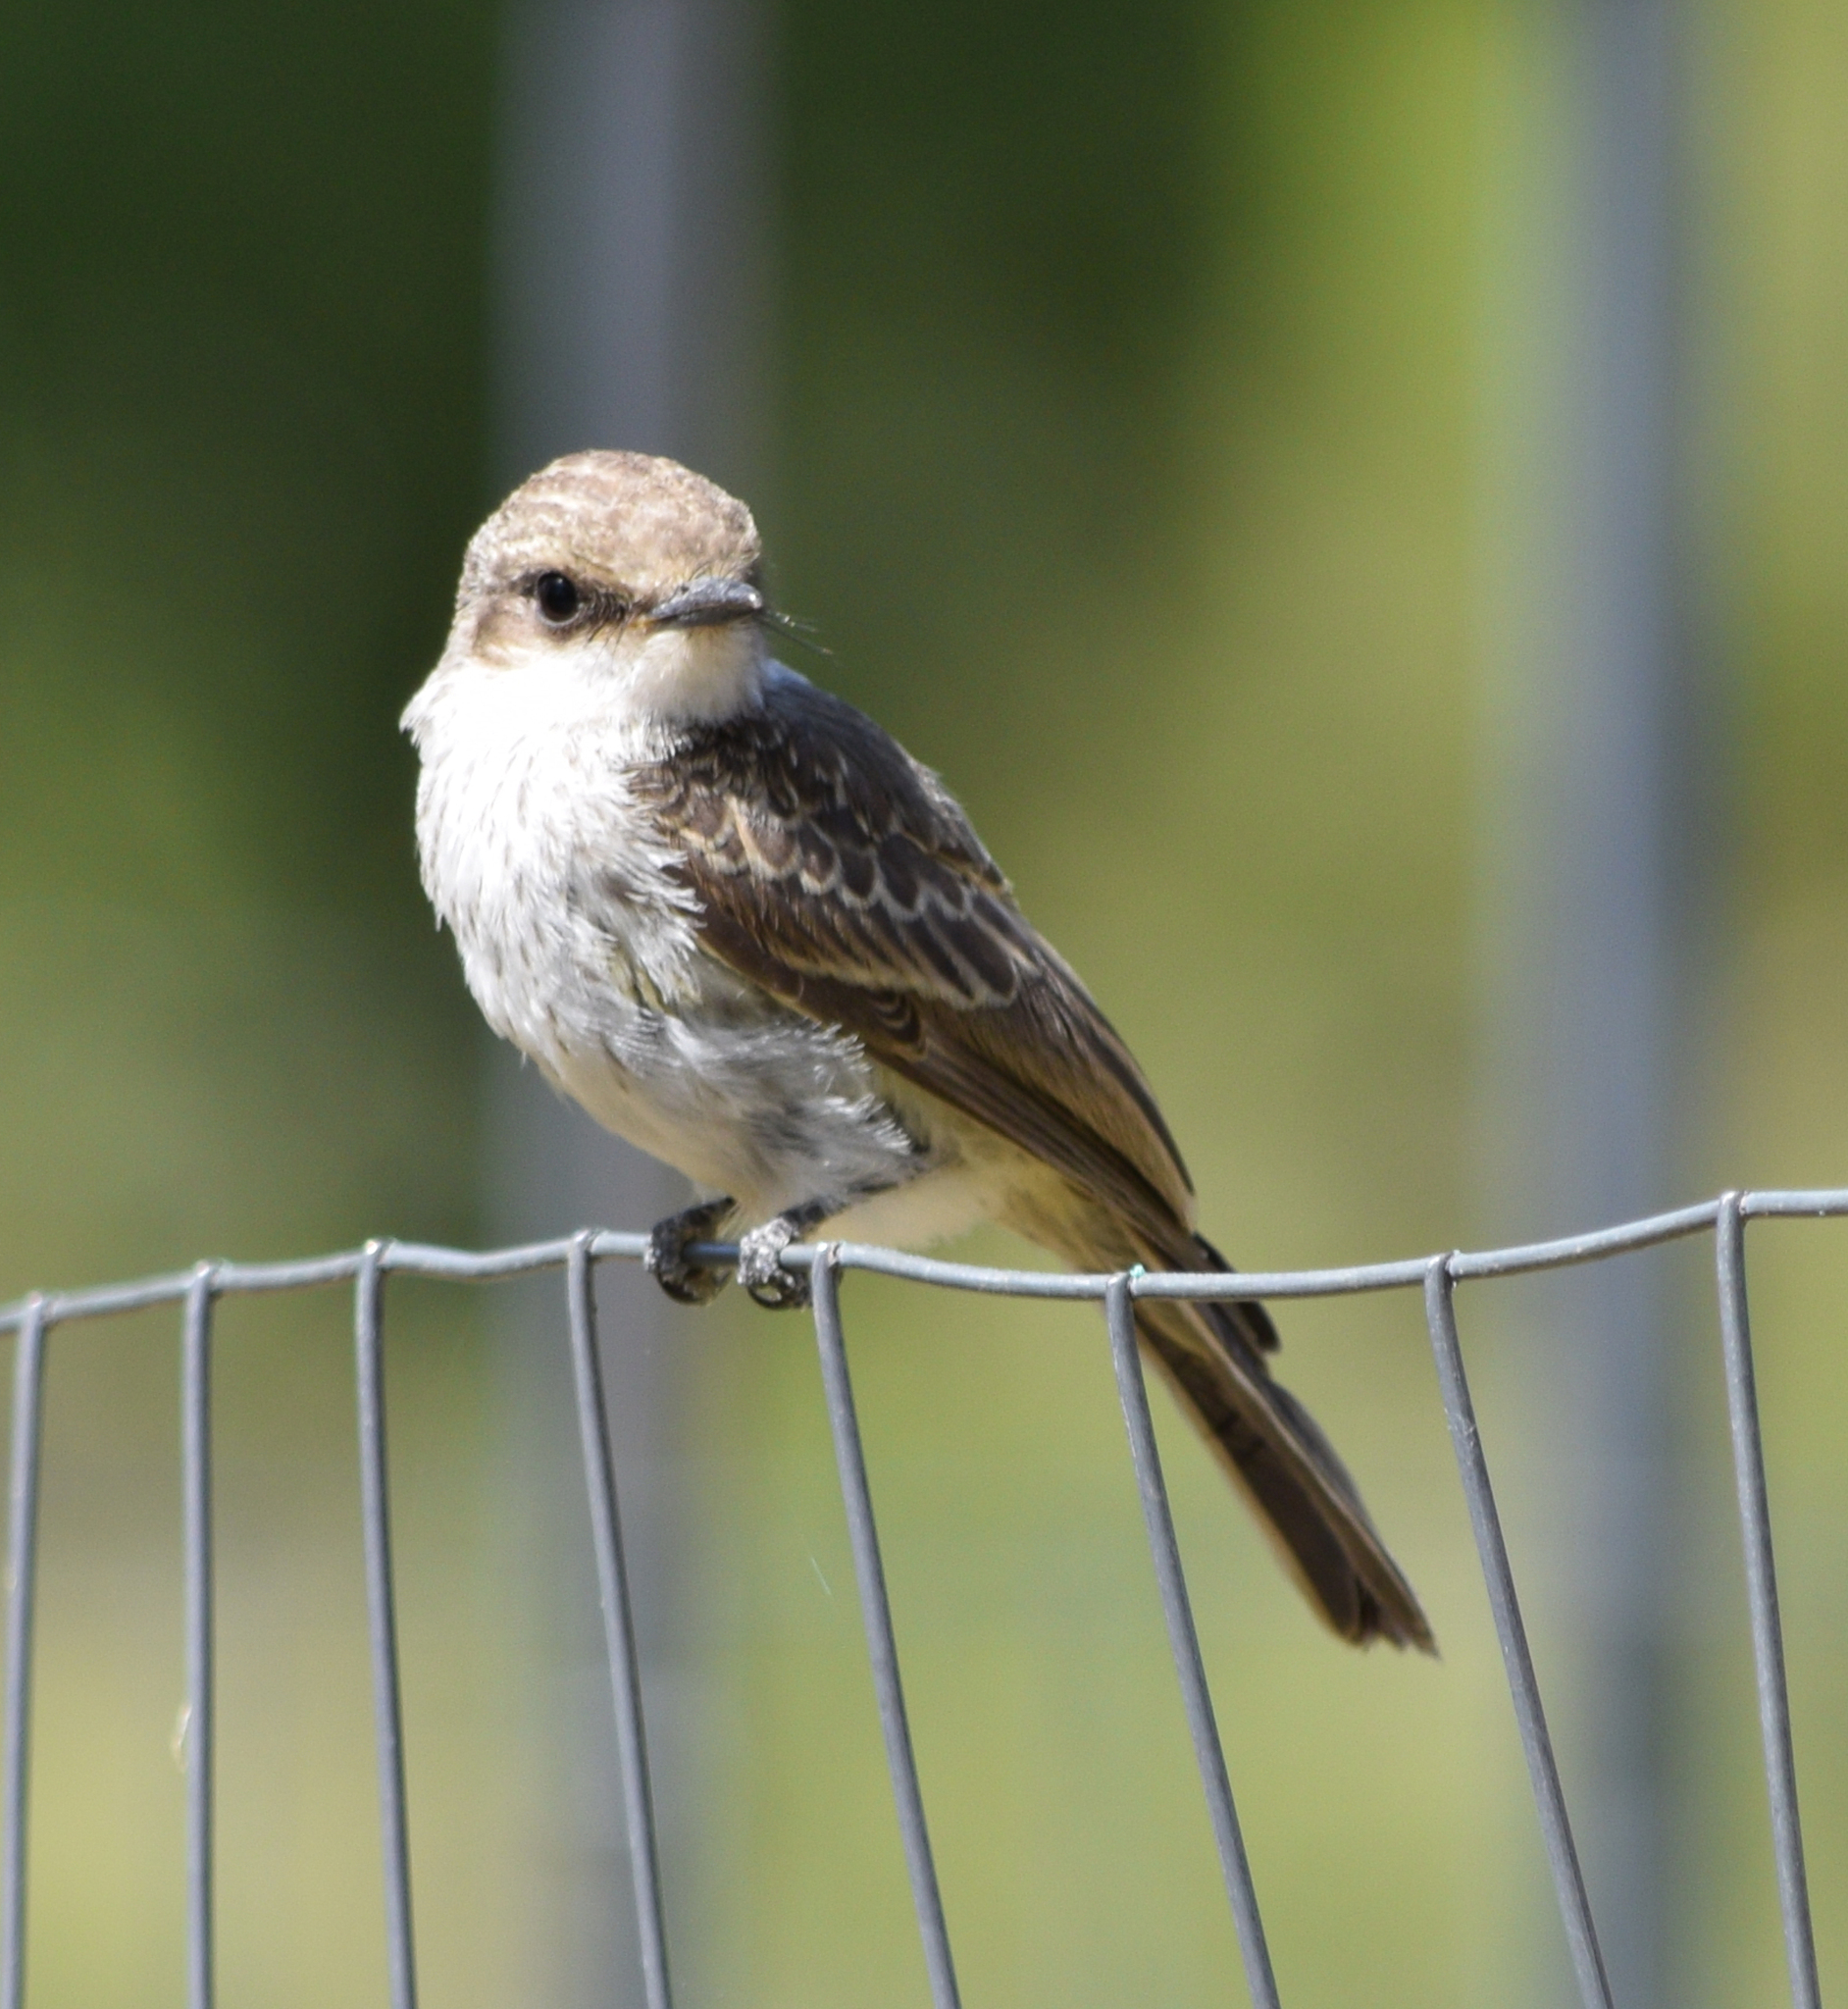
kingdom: Animalia
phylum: Chordata
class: Aves
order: Passeriformes
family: Tyrannidae
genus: Pyrocephalus
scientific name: Pyrocephalus rubinus
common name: Vermilion flycatcher
